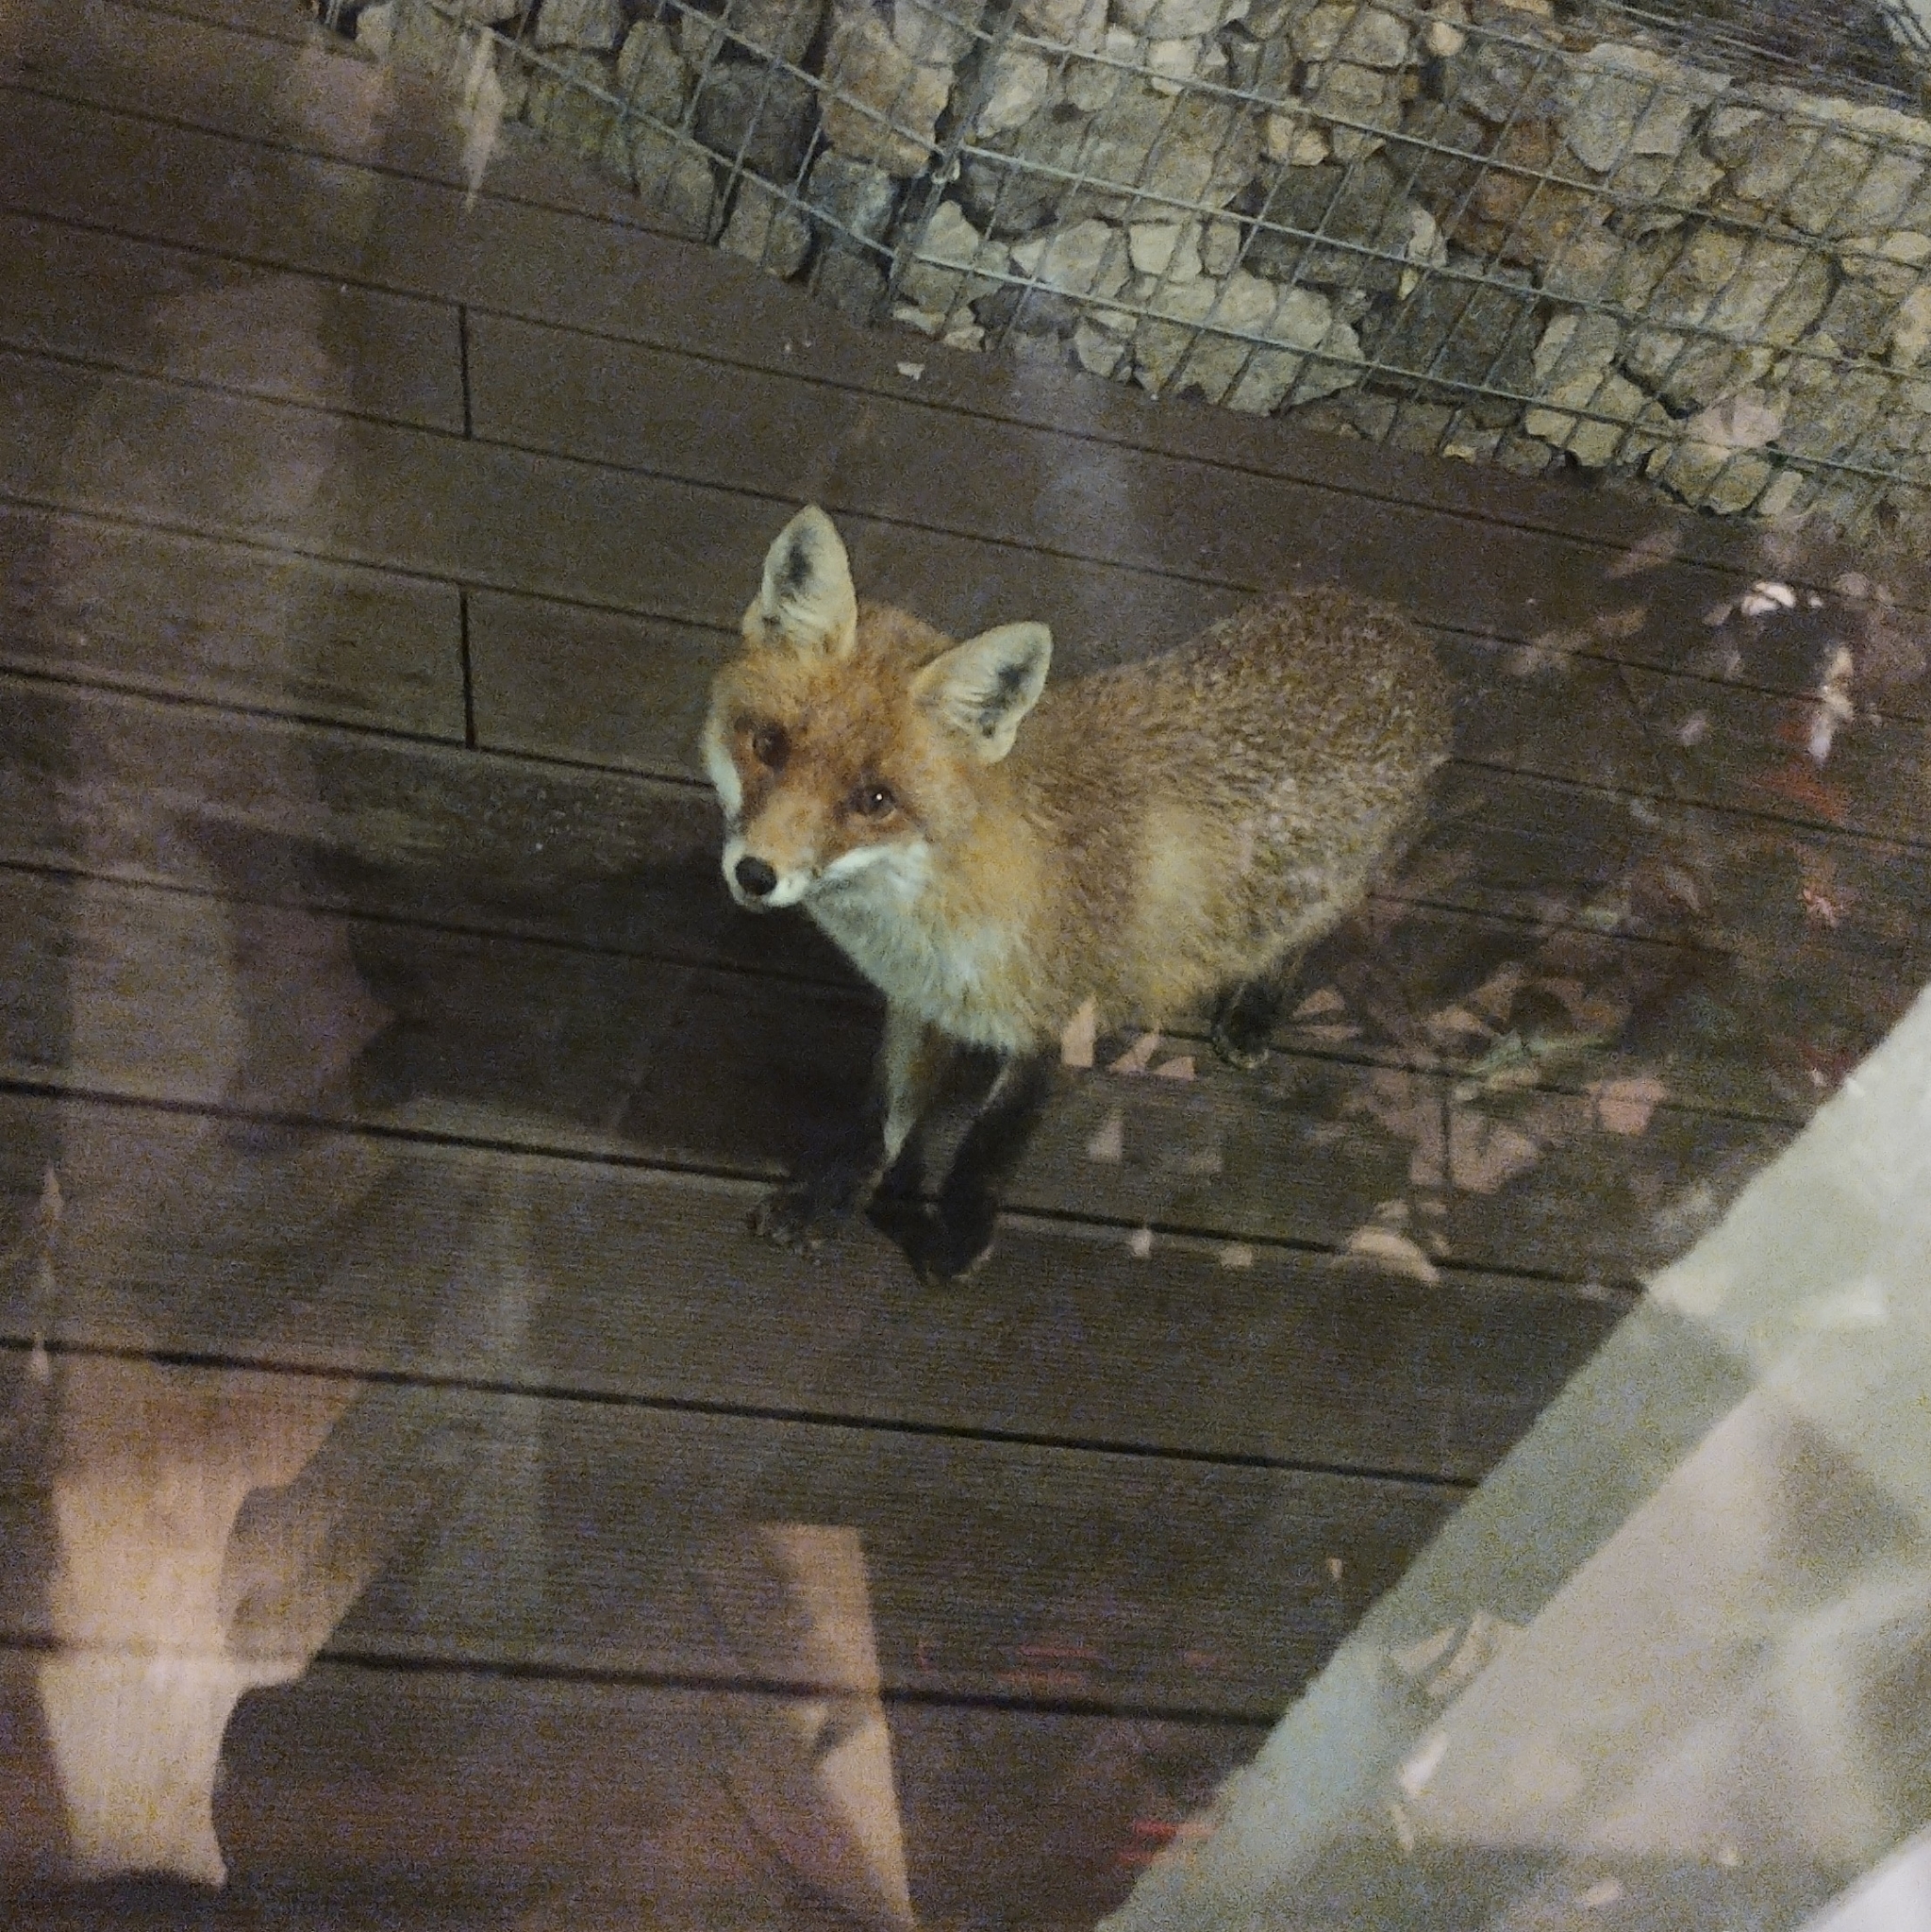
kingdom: Animalia
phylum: Chordata
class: Mammalia
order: Carnivora
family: Canidae
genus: Vulpes
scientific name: Vulpes vulpes
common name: Red fox
